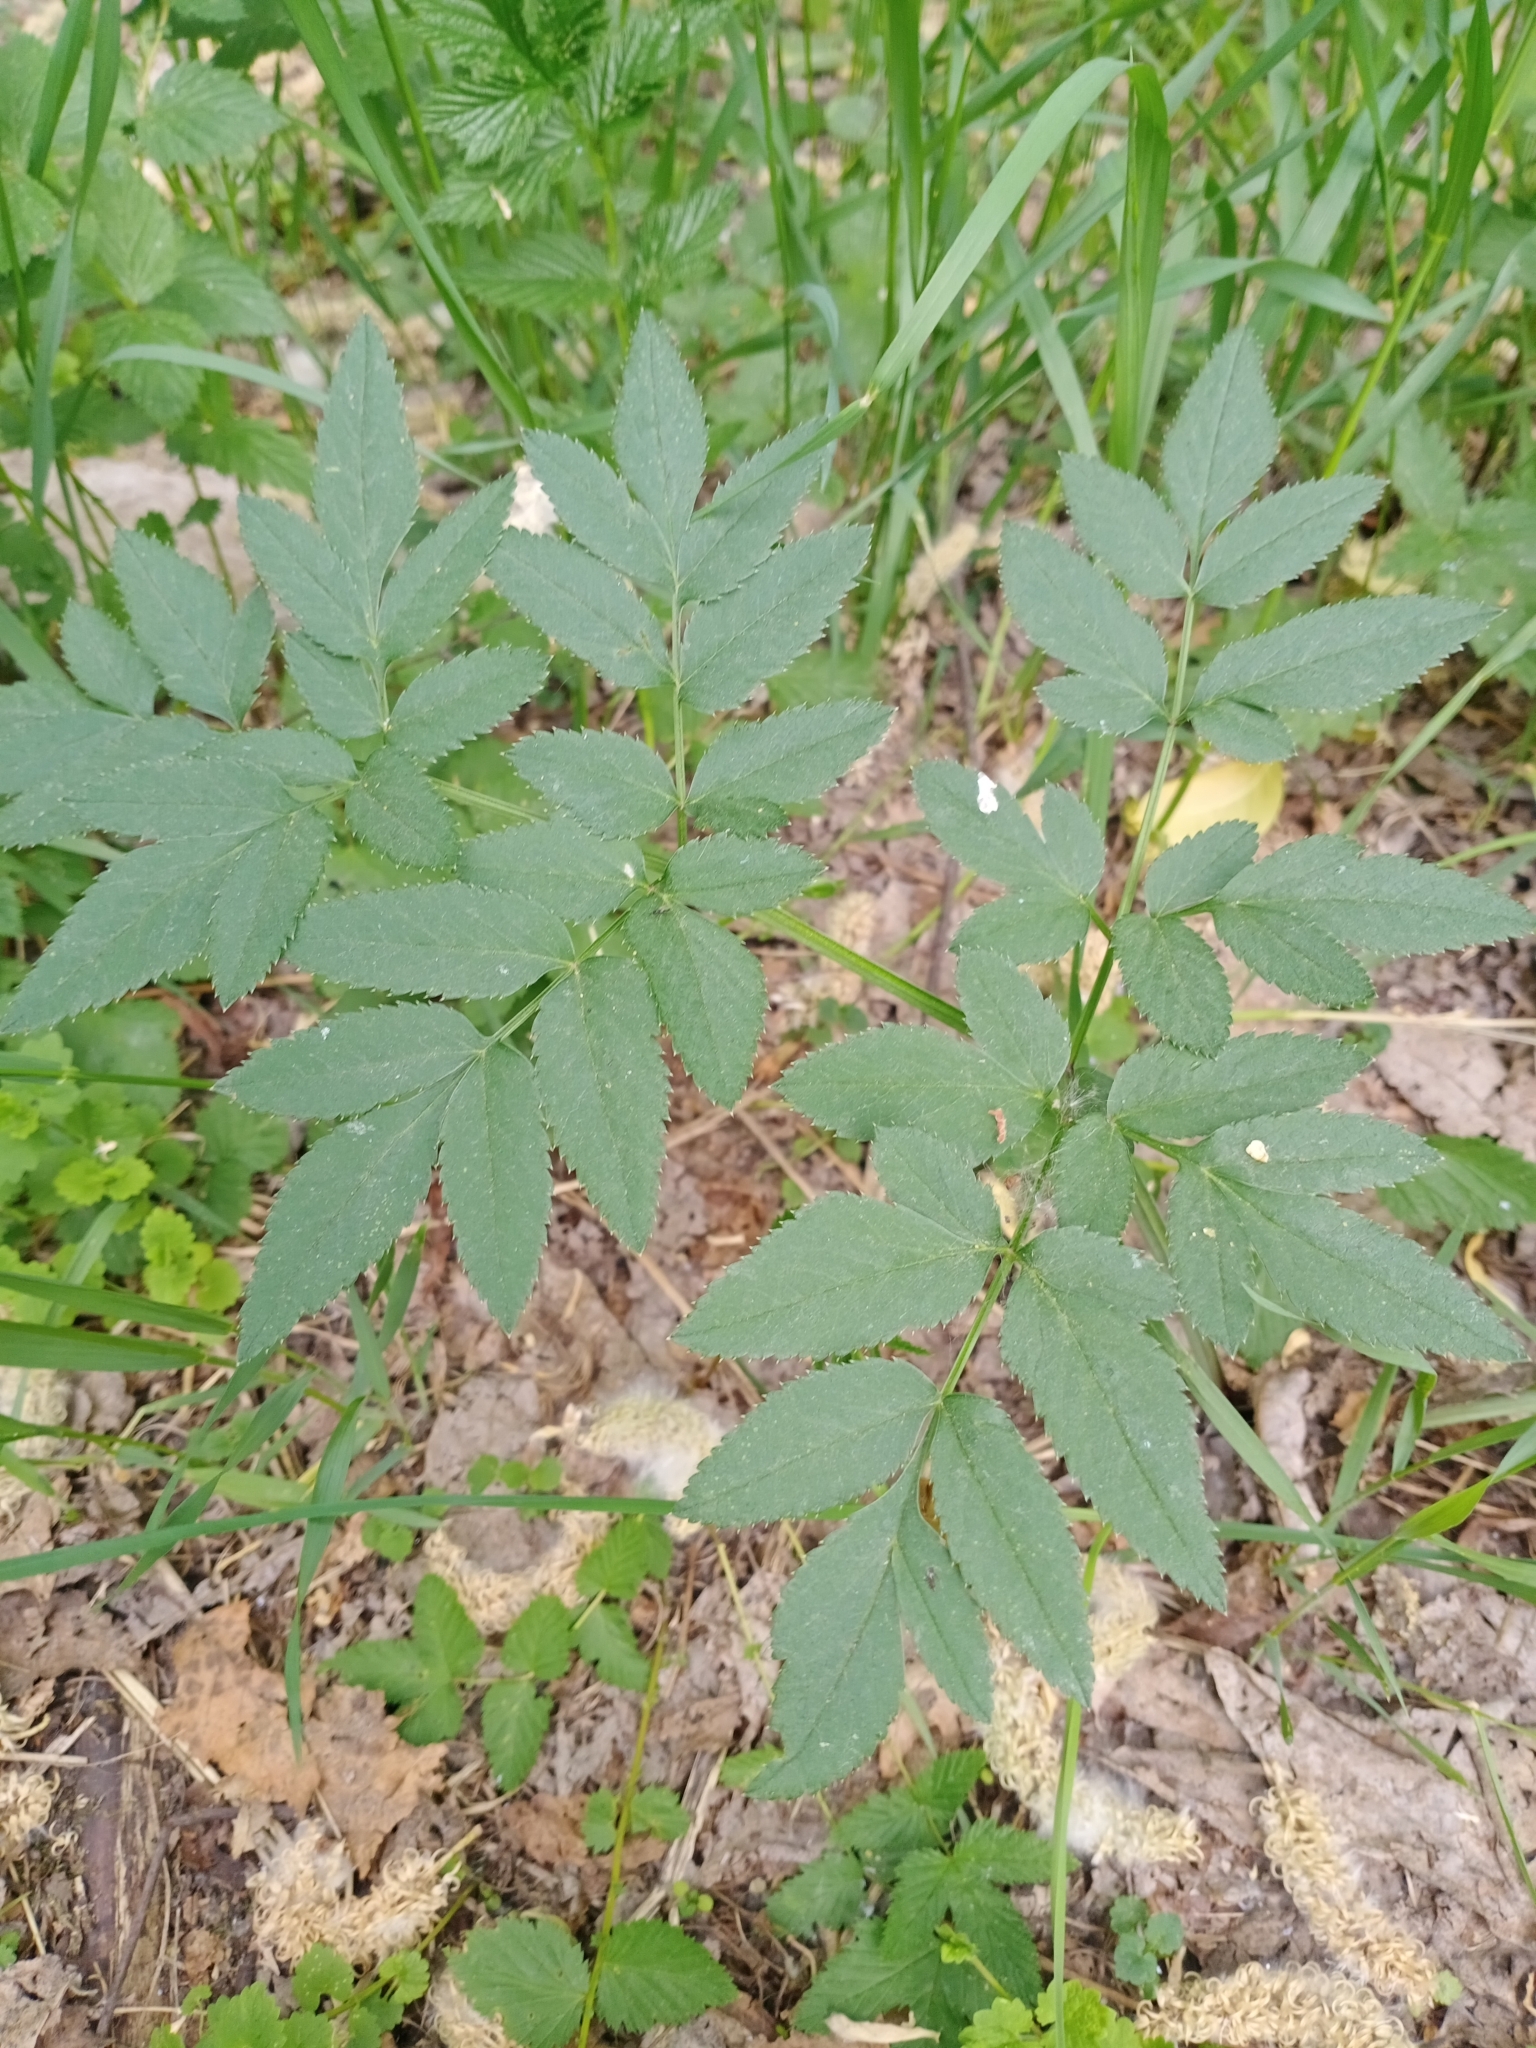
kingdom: Plantae
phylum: Tracheophyta
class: Magnoliopsida
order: Apiales
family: Apiaceae
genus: Angelica
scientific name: Angelica sylvestris
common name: Wild angelica
